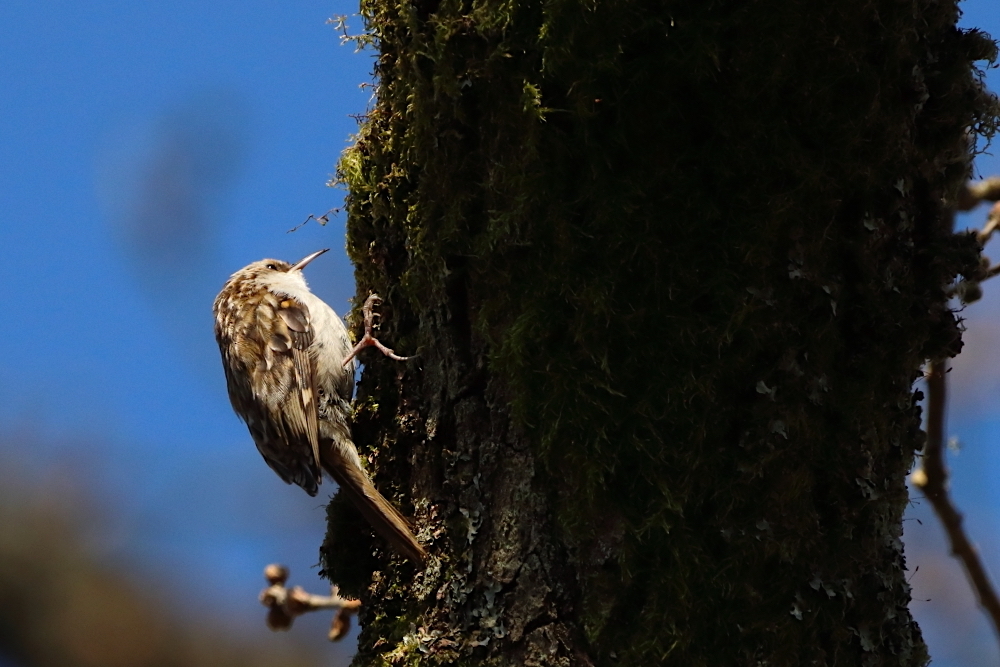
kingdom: Animalia
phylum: Chordata
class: Aves
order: Passeriformes
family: Certhiidae
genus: Certhia
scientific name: Certhia familiaris
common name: Eurasian treecreeper
